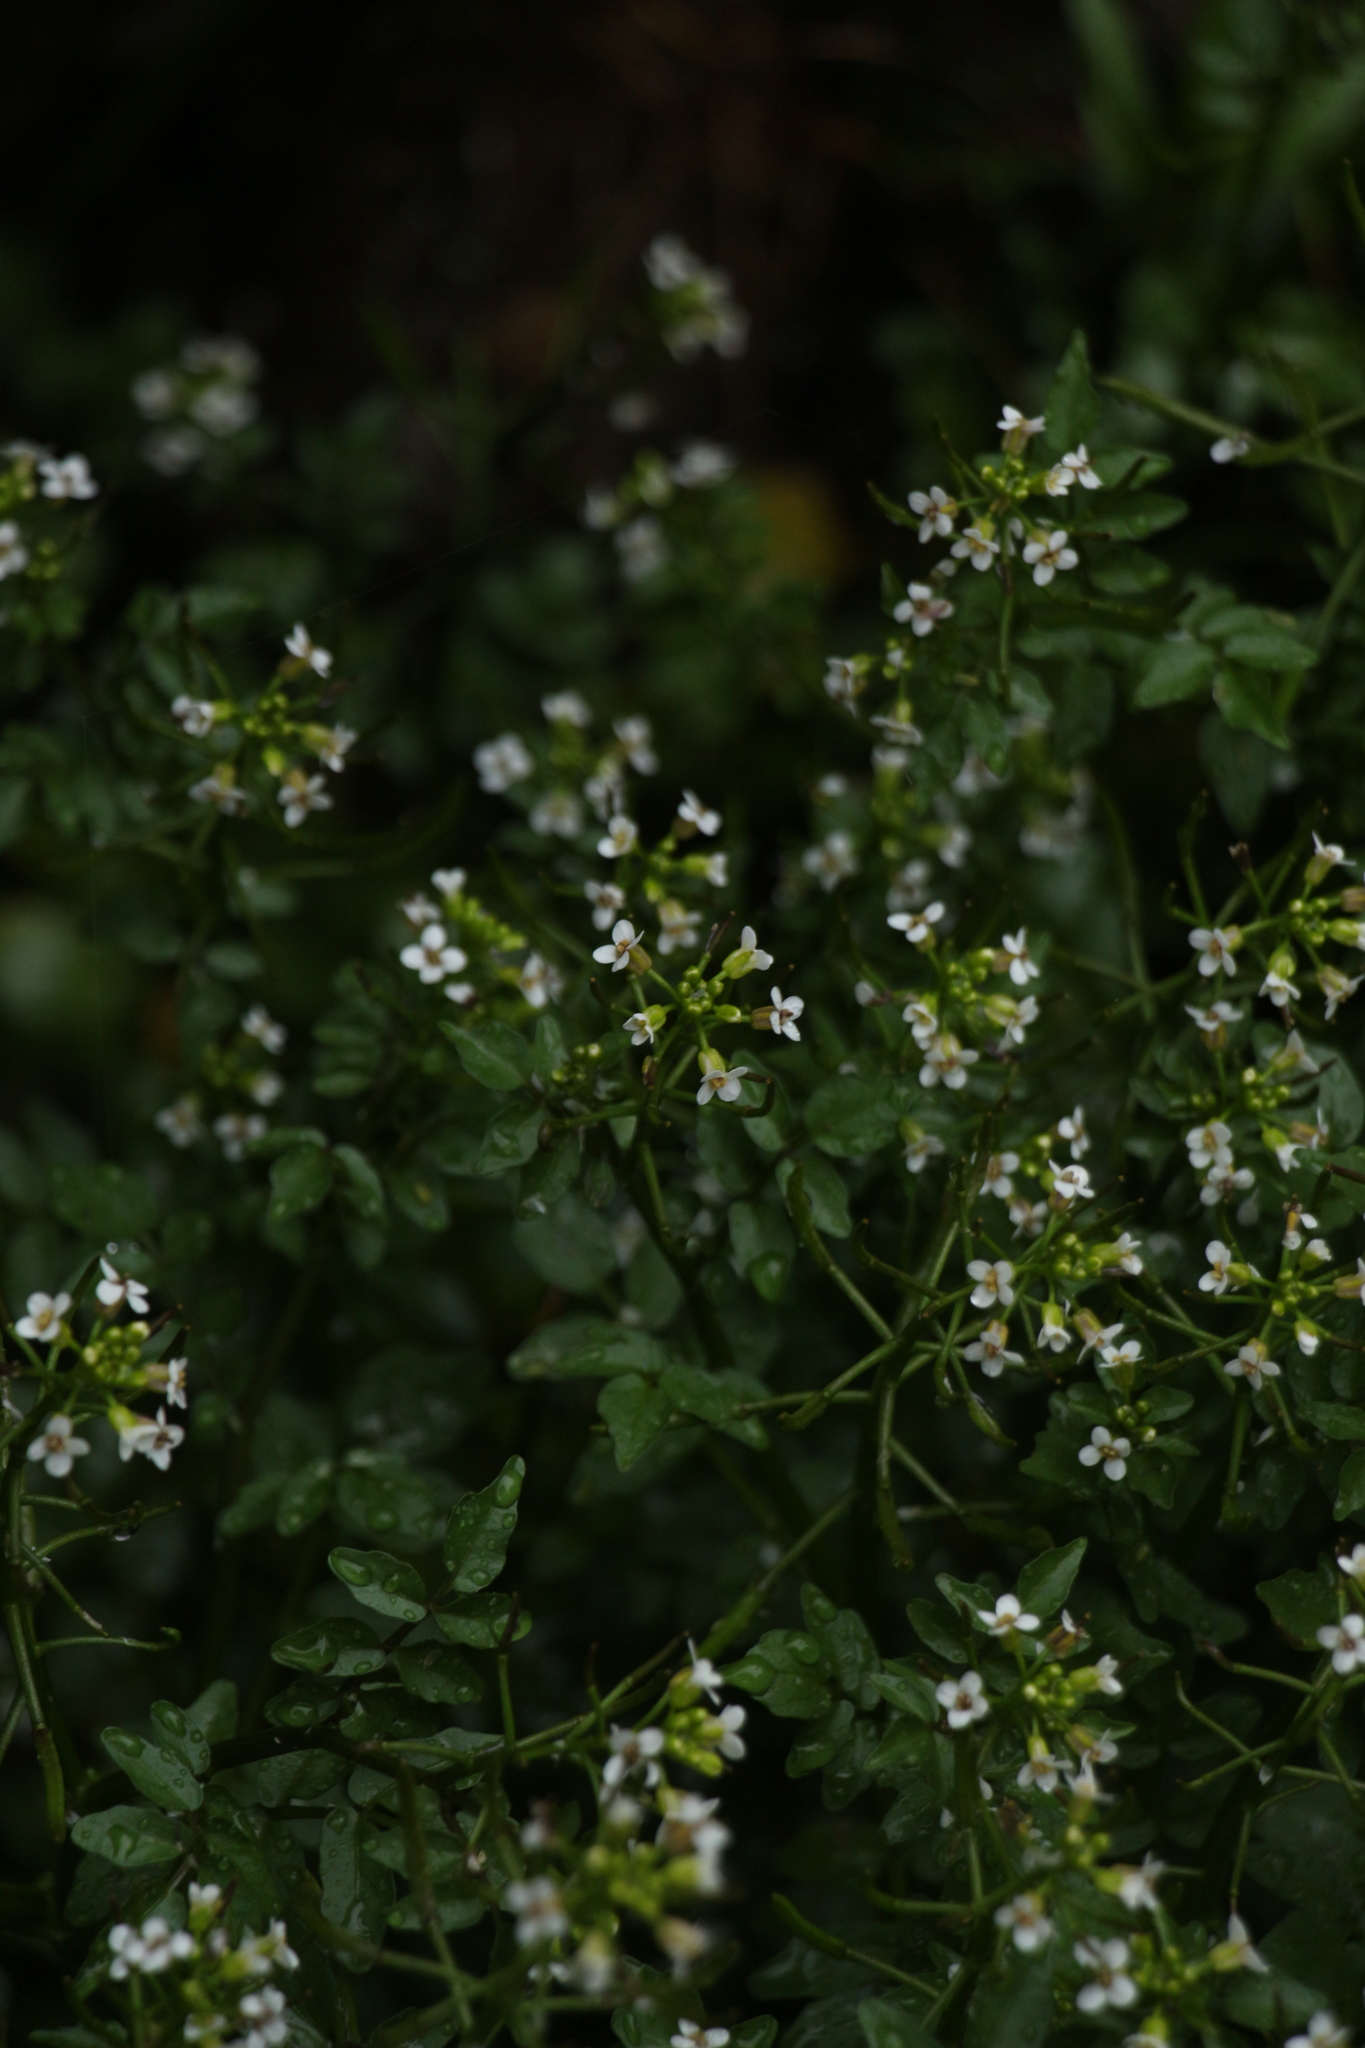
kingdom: Plantae
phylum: Tracheophyta
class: Magnoliopsida
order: Brassicales
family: Brassicaceae
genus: Nasturtium
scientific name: Nasturtium officinale
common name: Watercress
